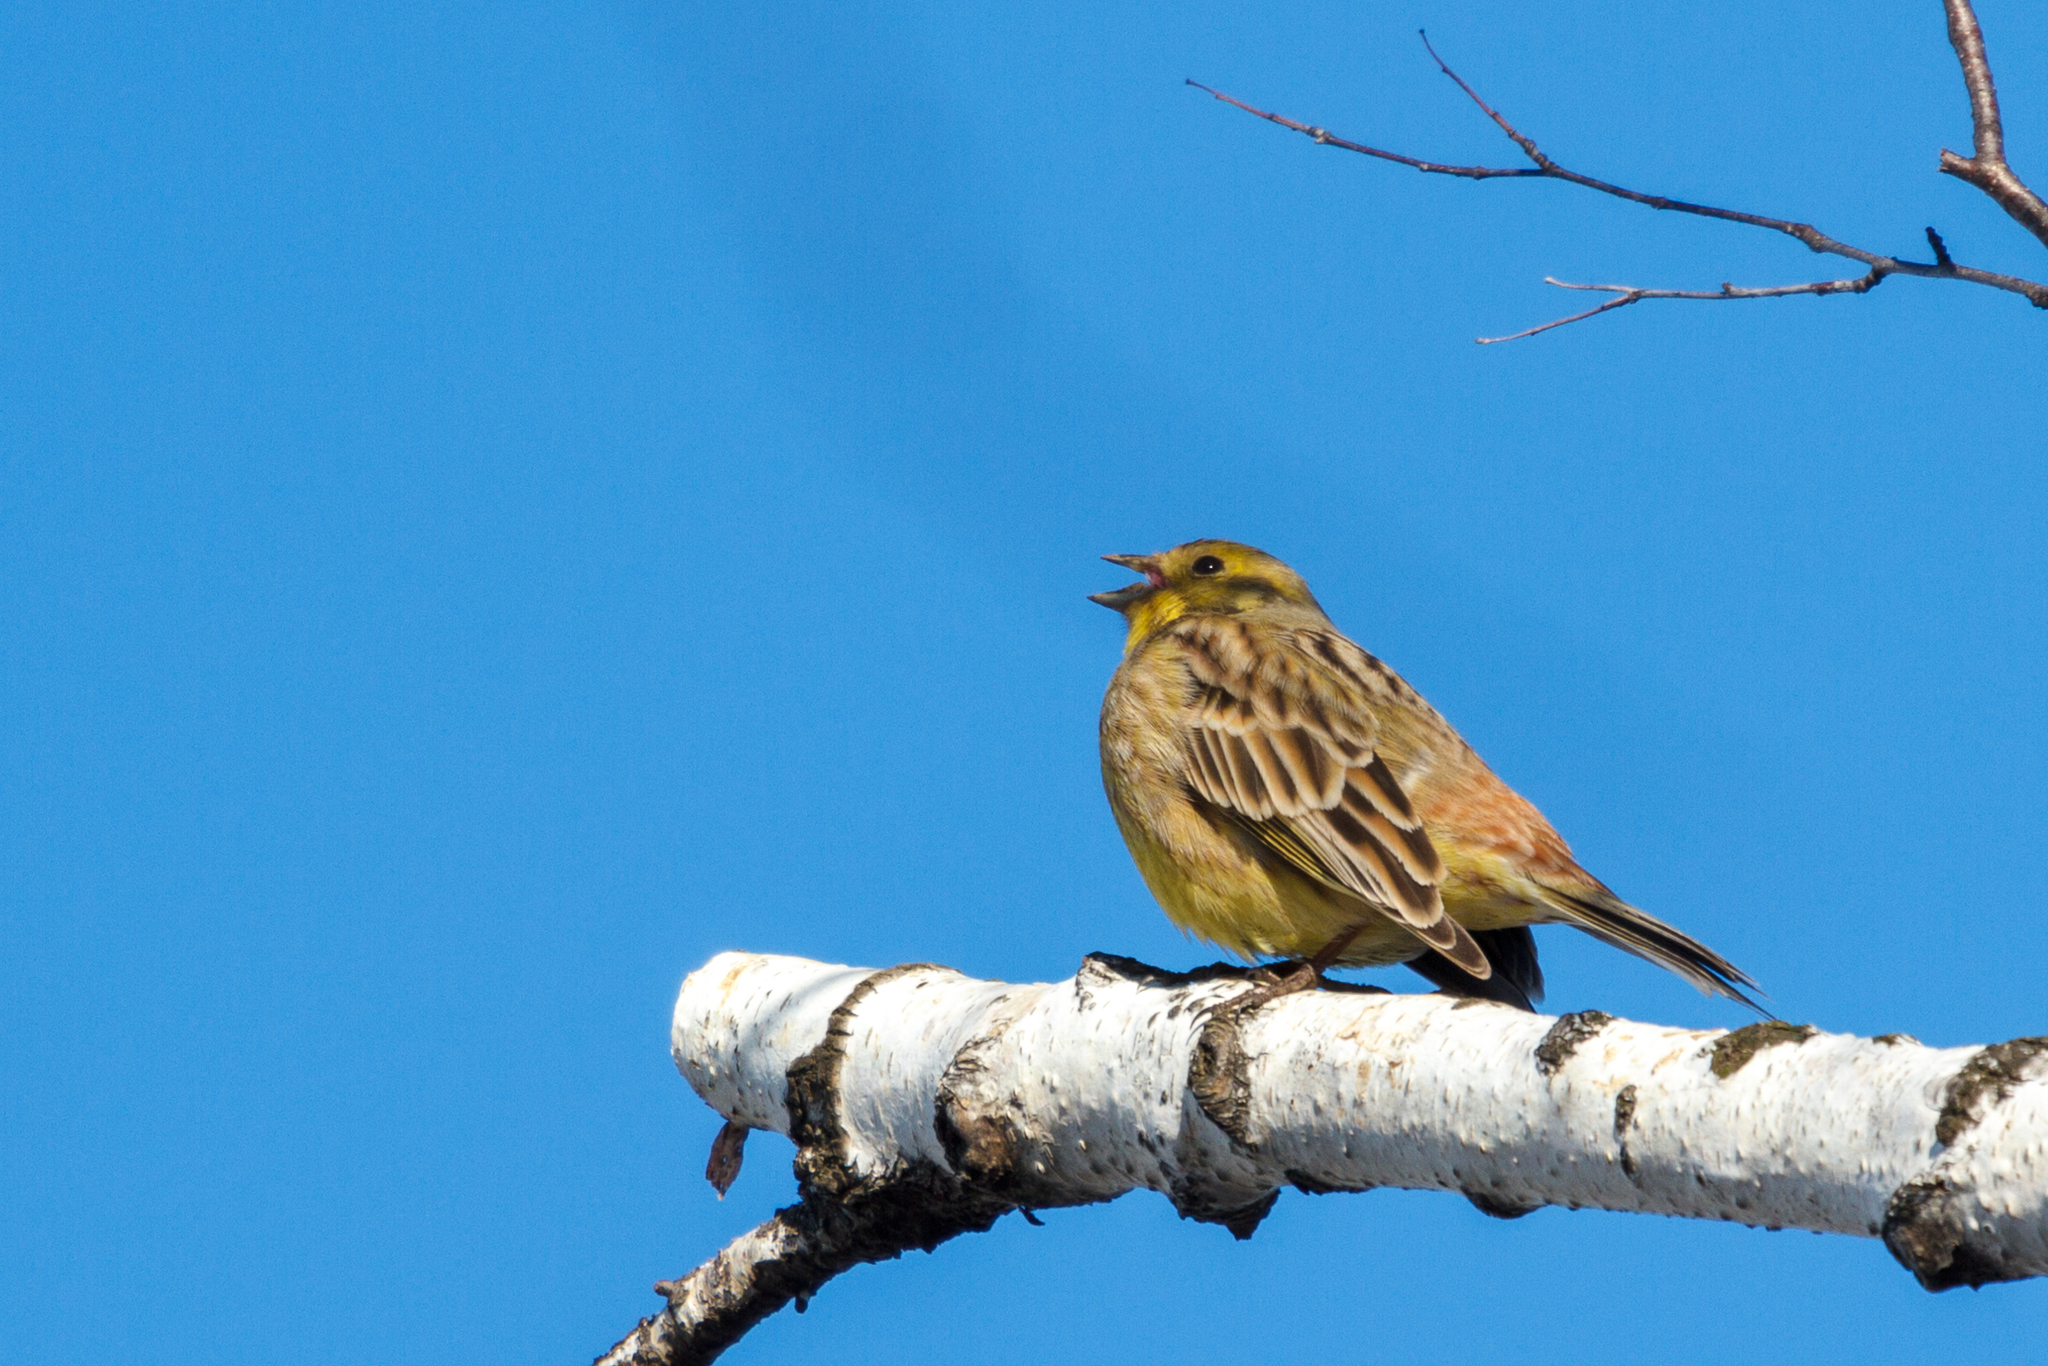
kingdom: Animalia
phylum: Chordata
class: Aves
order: Passeriformes
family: Emberizidae
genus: Emberiza
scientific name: Emberiza citrinella
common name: Yellowhammer
